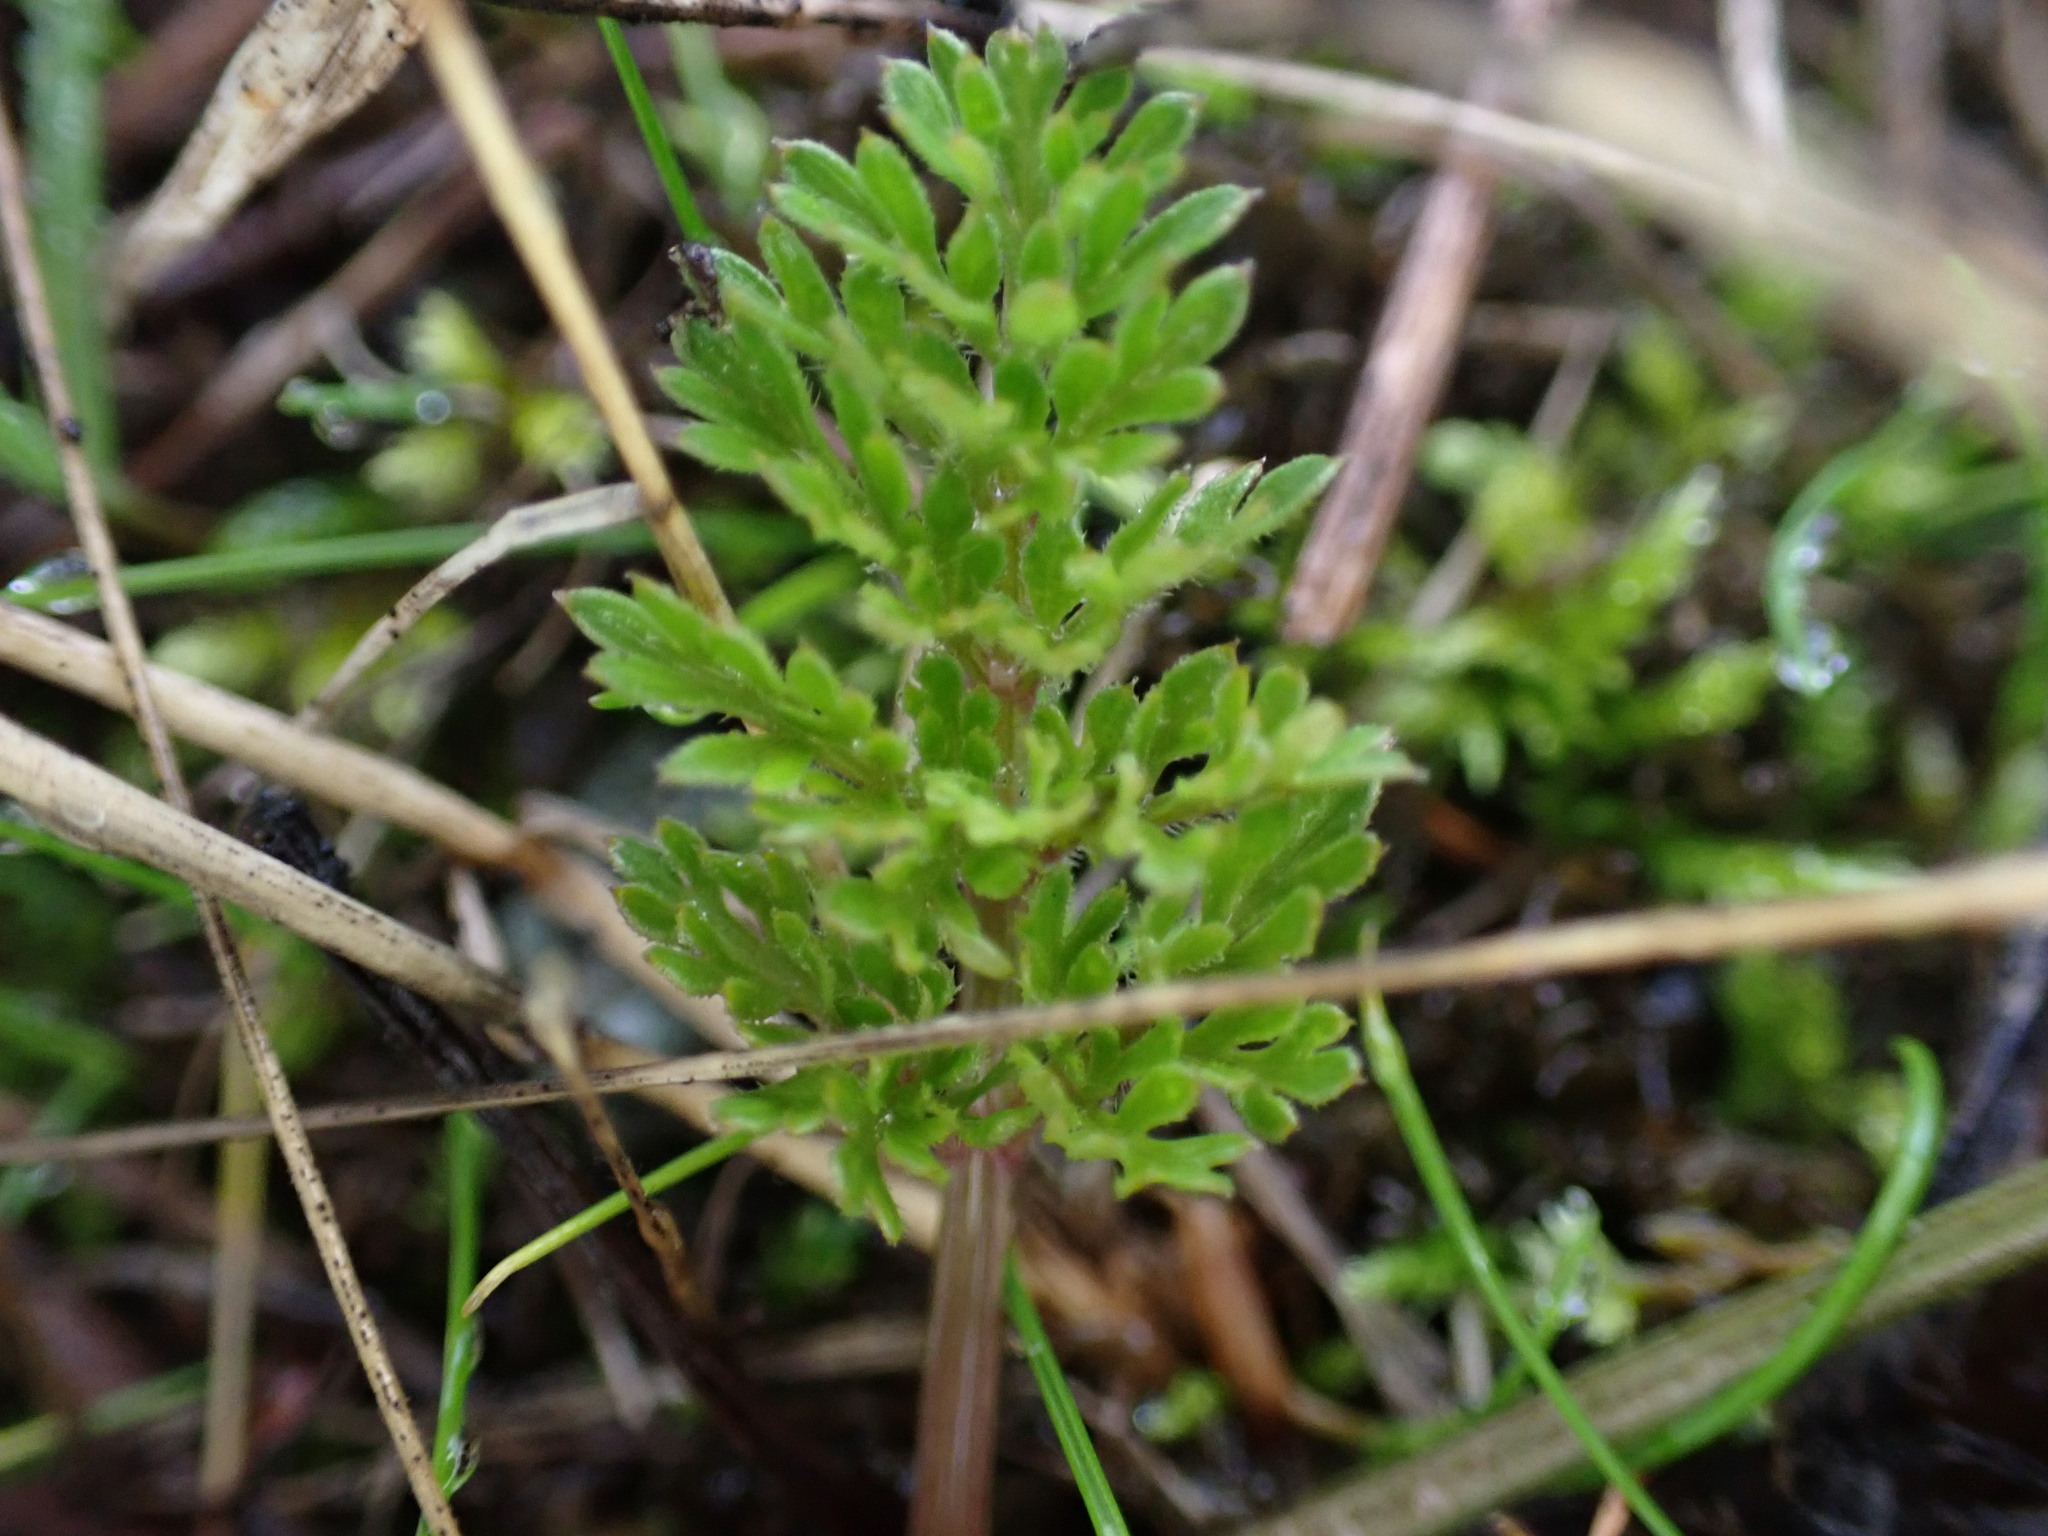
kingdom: Plantae
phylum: Tracheophyta
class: Magnoliopsida
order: Apiales
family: Apiaceae
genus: Daucus
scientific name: Daucus carota
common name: Wild carrot
